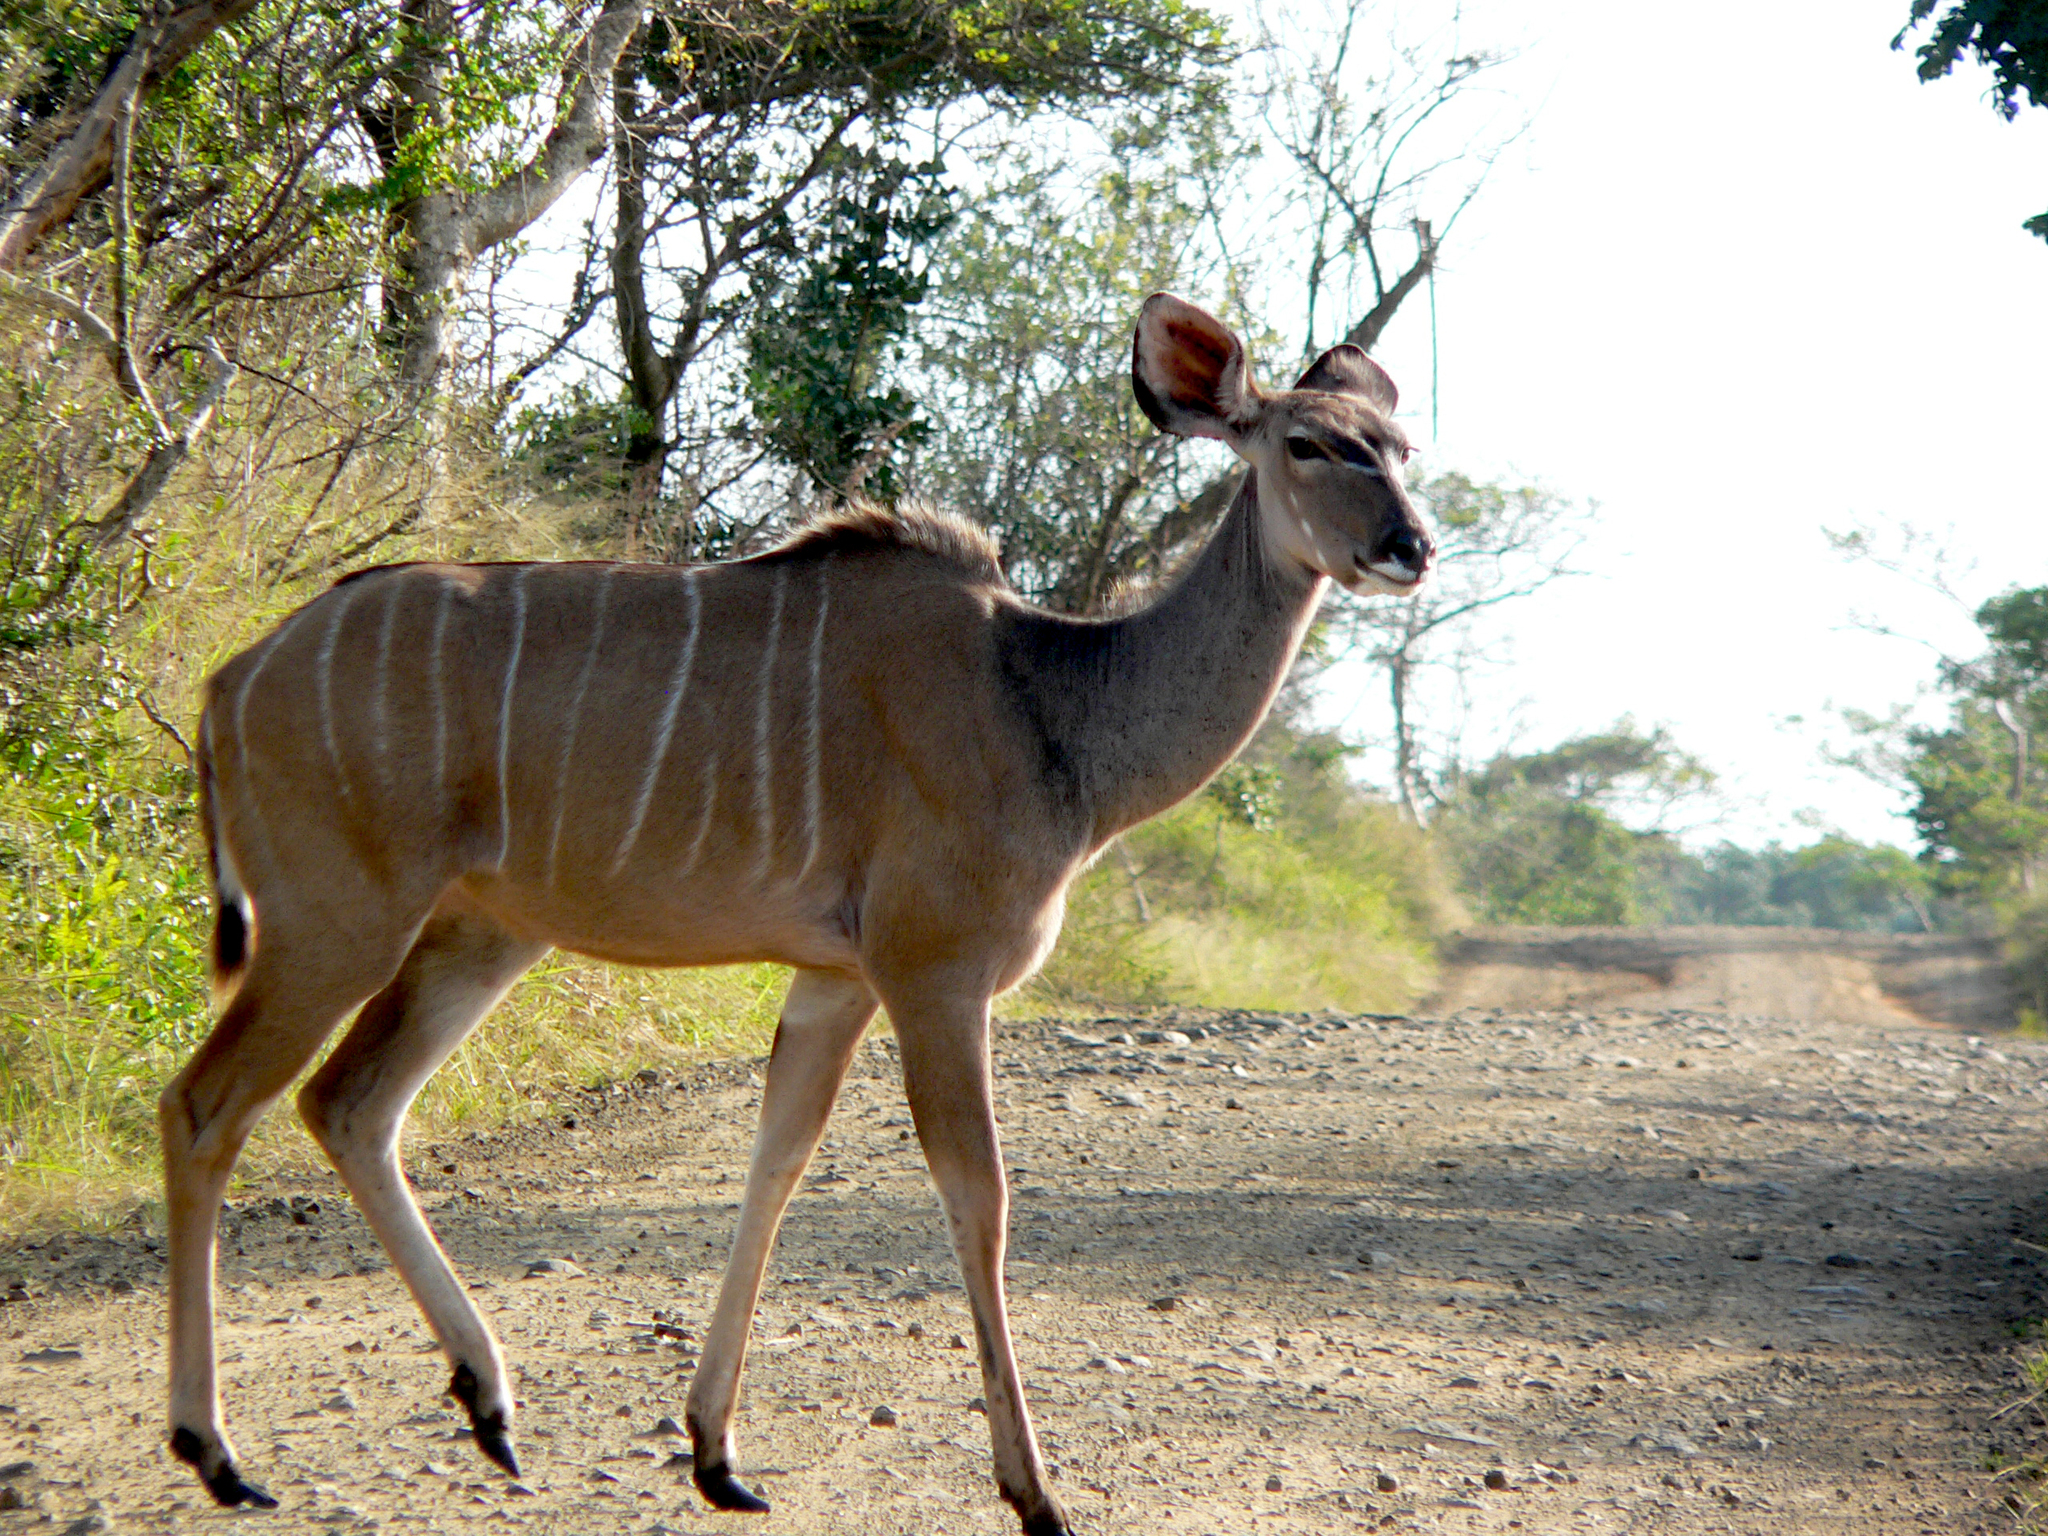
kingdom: Animalia
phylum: Chordata
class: Mammalia
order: Artiodactyla
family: Bovidae
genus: Tragelaphus
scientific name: Tragelaphus strepsiceros
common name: Greater kudu
